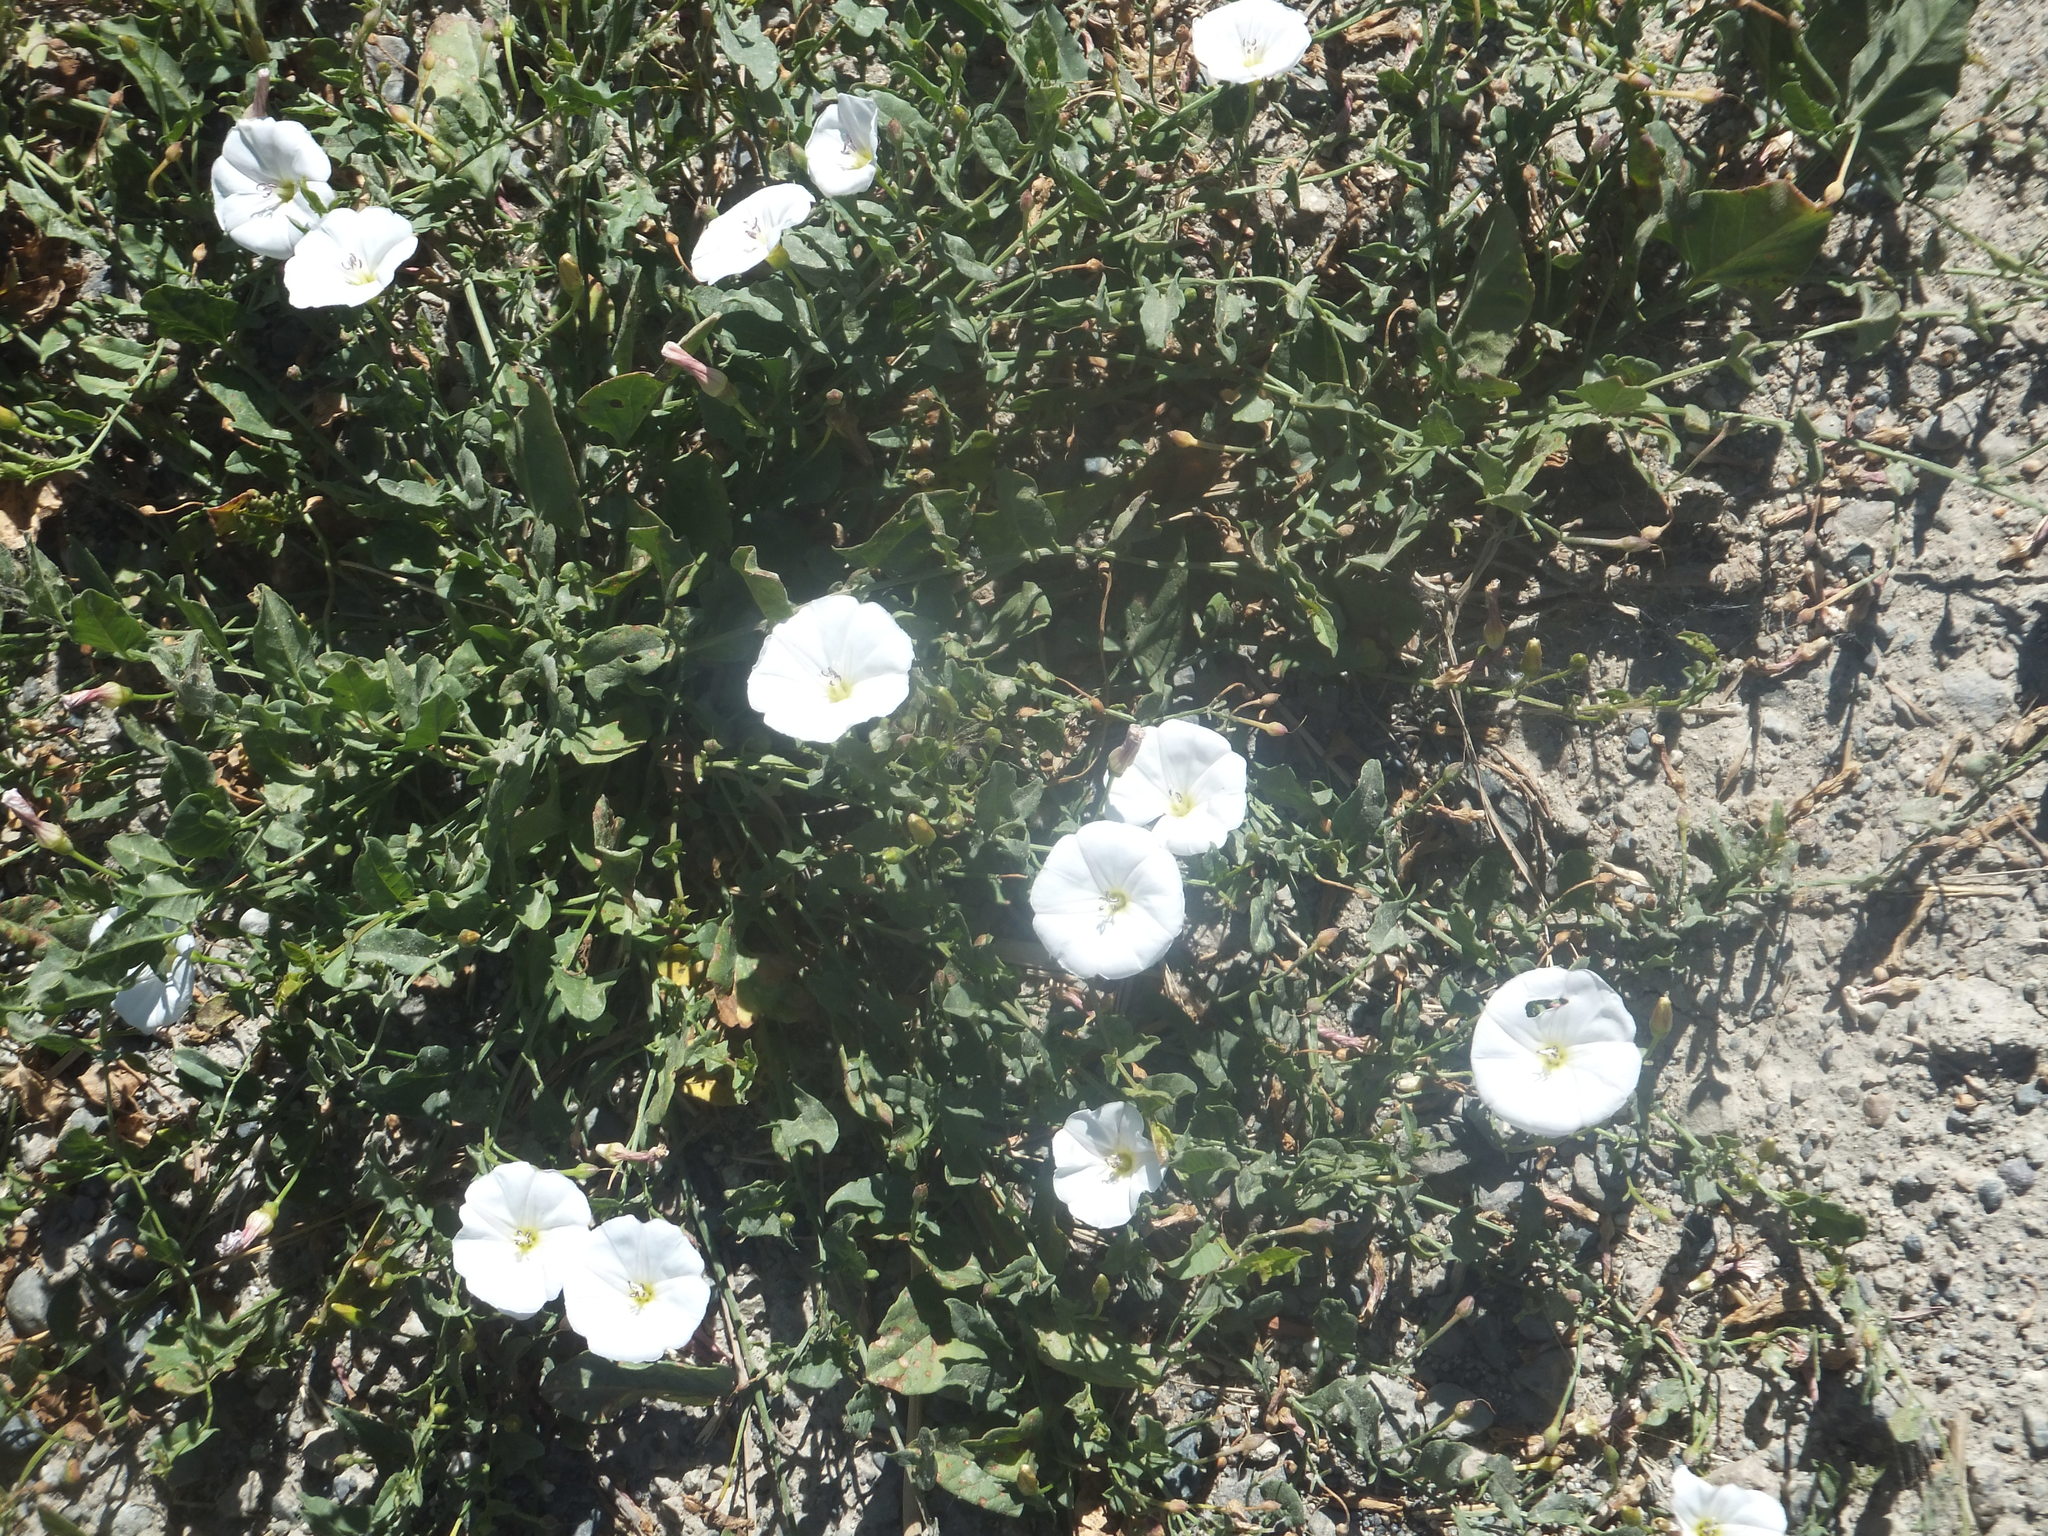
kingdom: Plantae
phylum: Tracheophyta
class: Magnoliopsida
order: Solanales
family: Convolvulaceae
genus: Convolvulus
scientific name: Convolvulus arvensis
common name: Field bindweed
